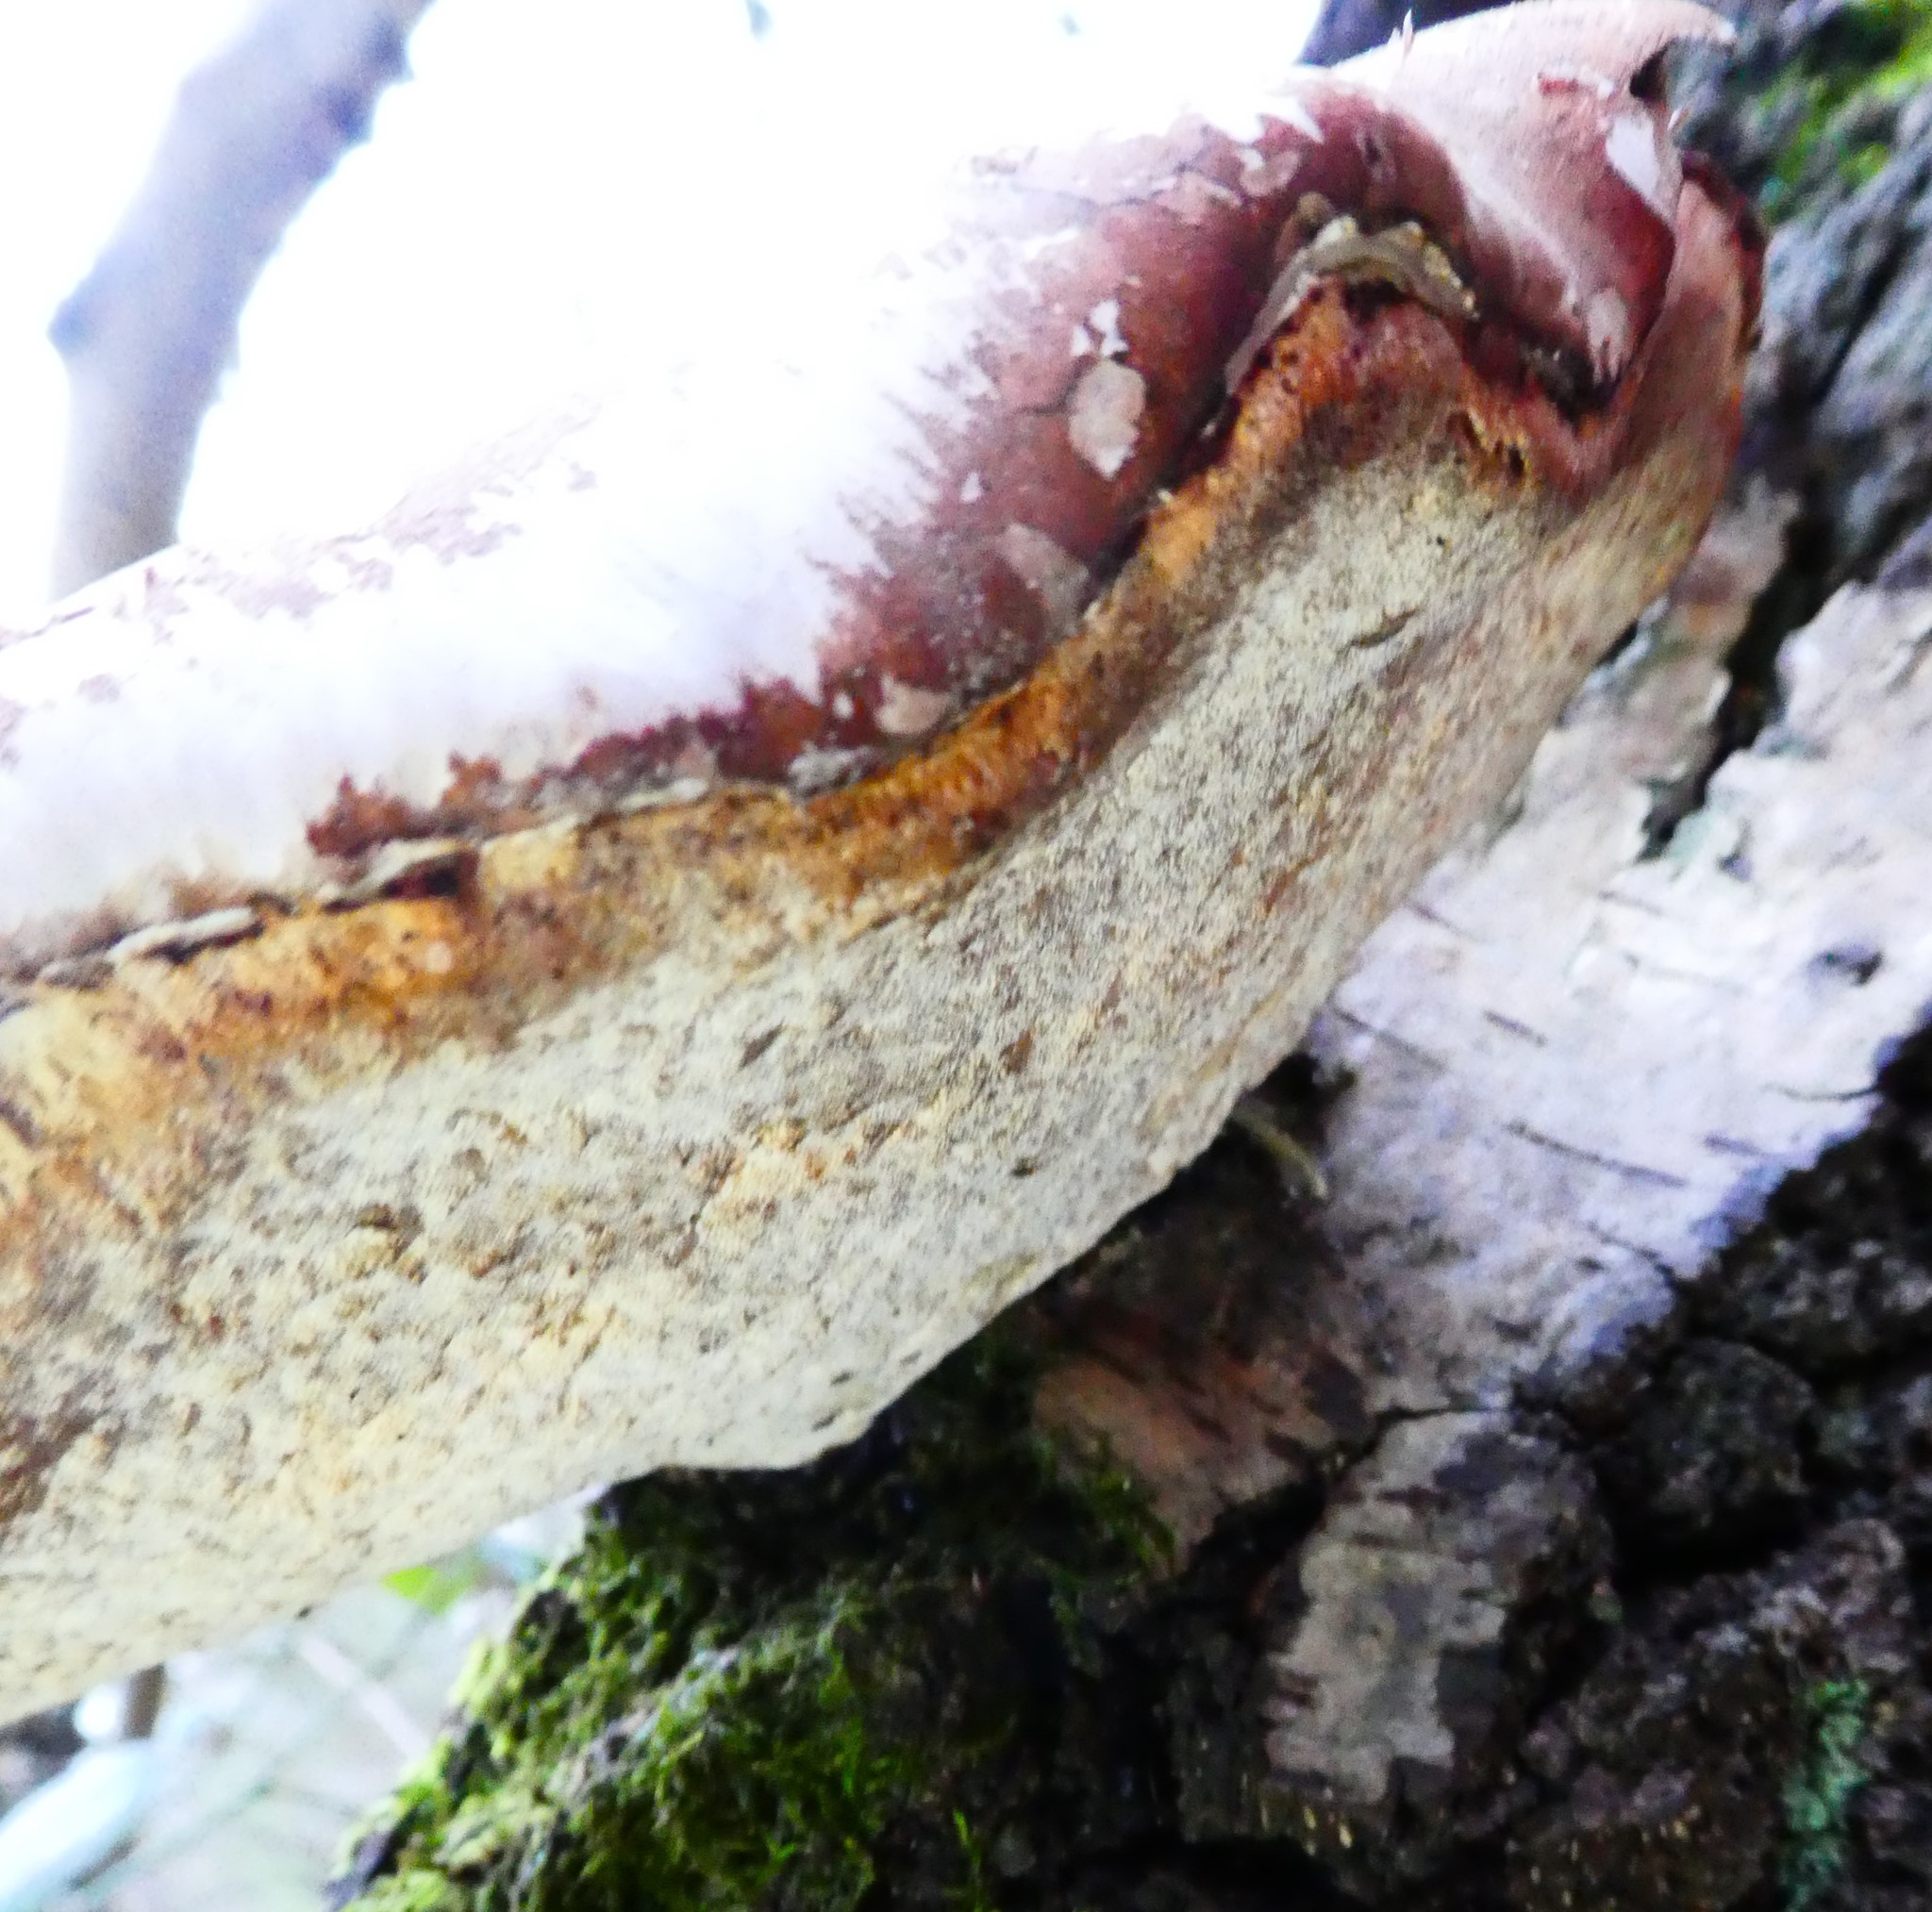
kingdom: Fungi
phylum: Basidiomycota
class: Agaricomycetes
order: Polyporales
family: Fomitopsidaceae
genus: Fomitopsis
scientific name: Fomitopsis betulina
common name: Birch polypore
